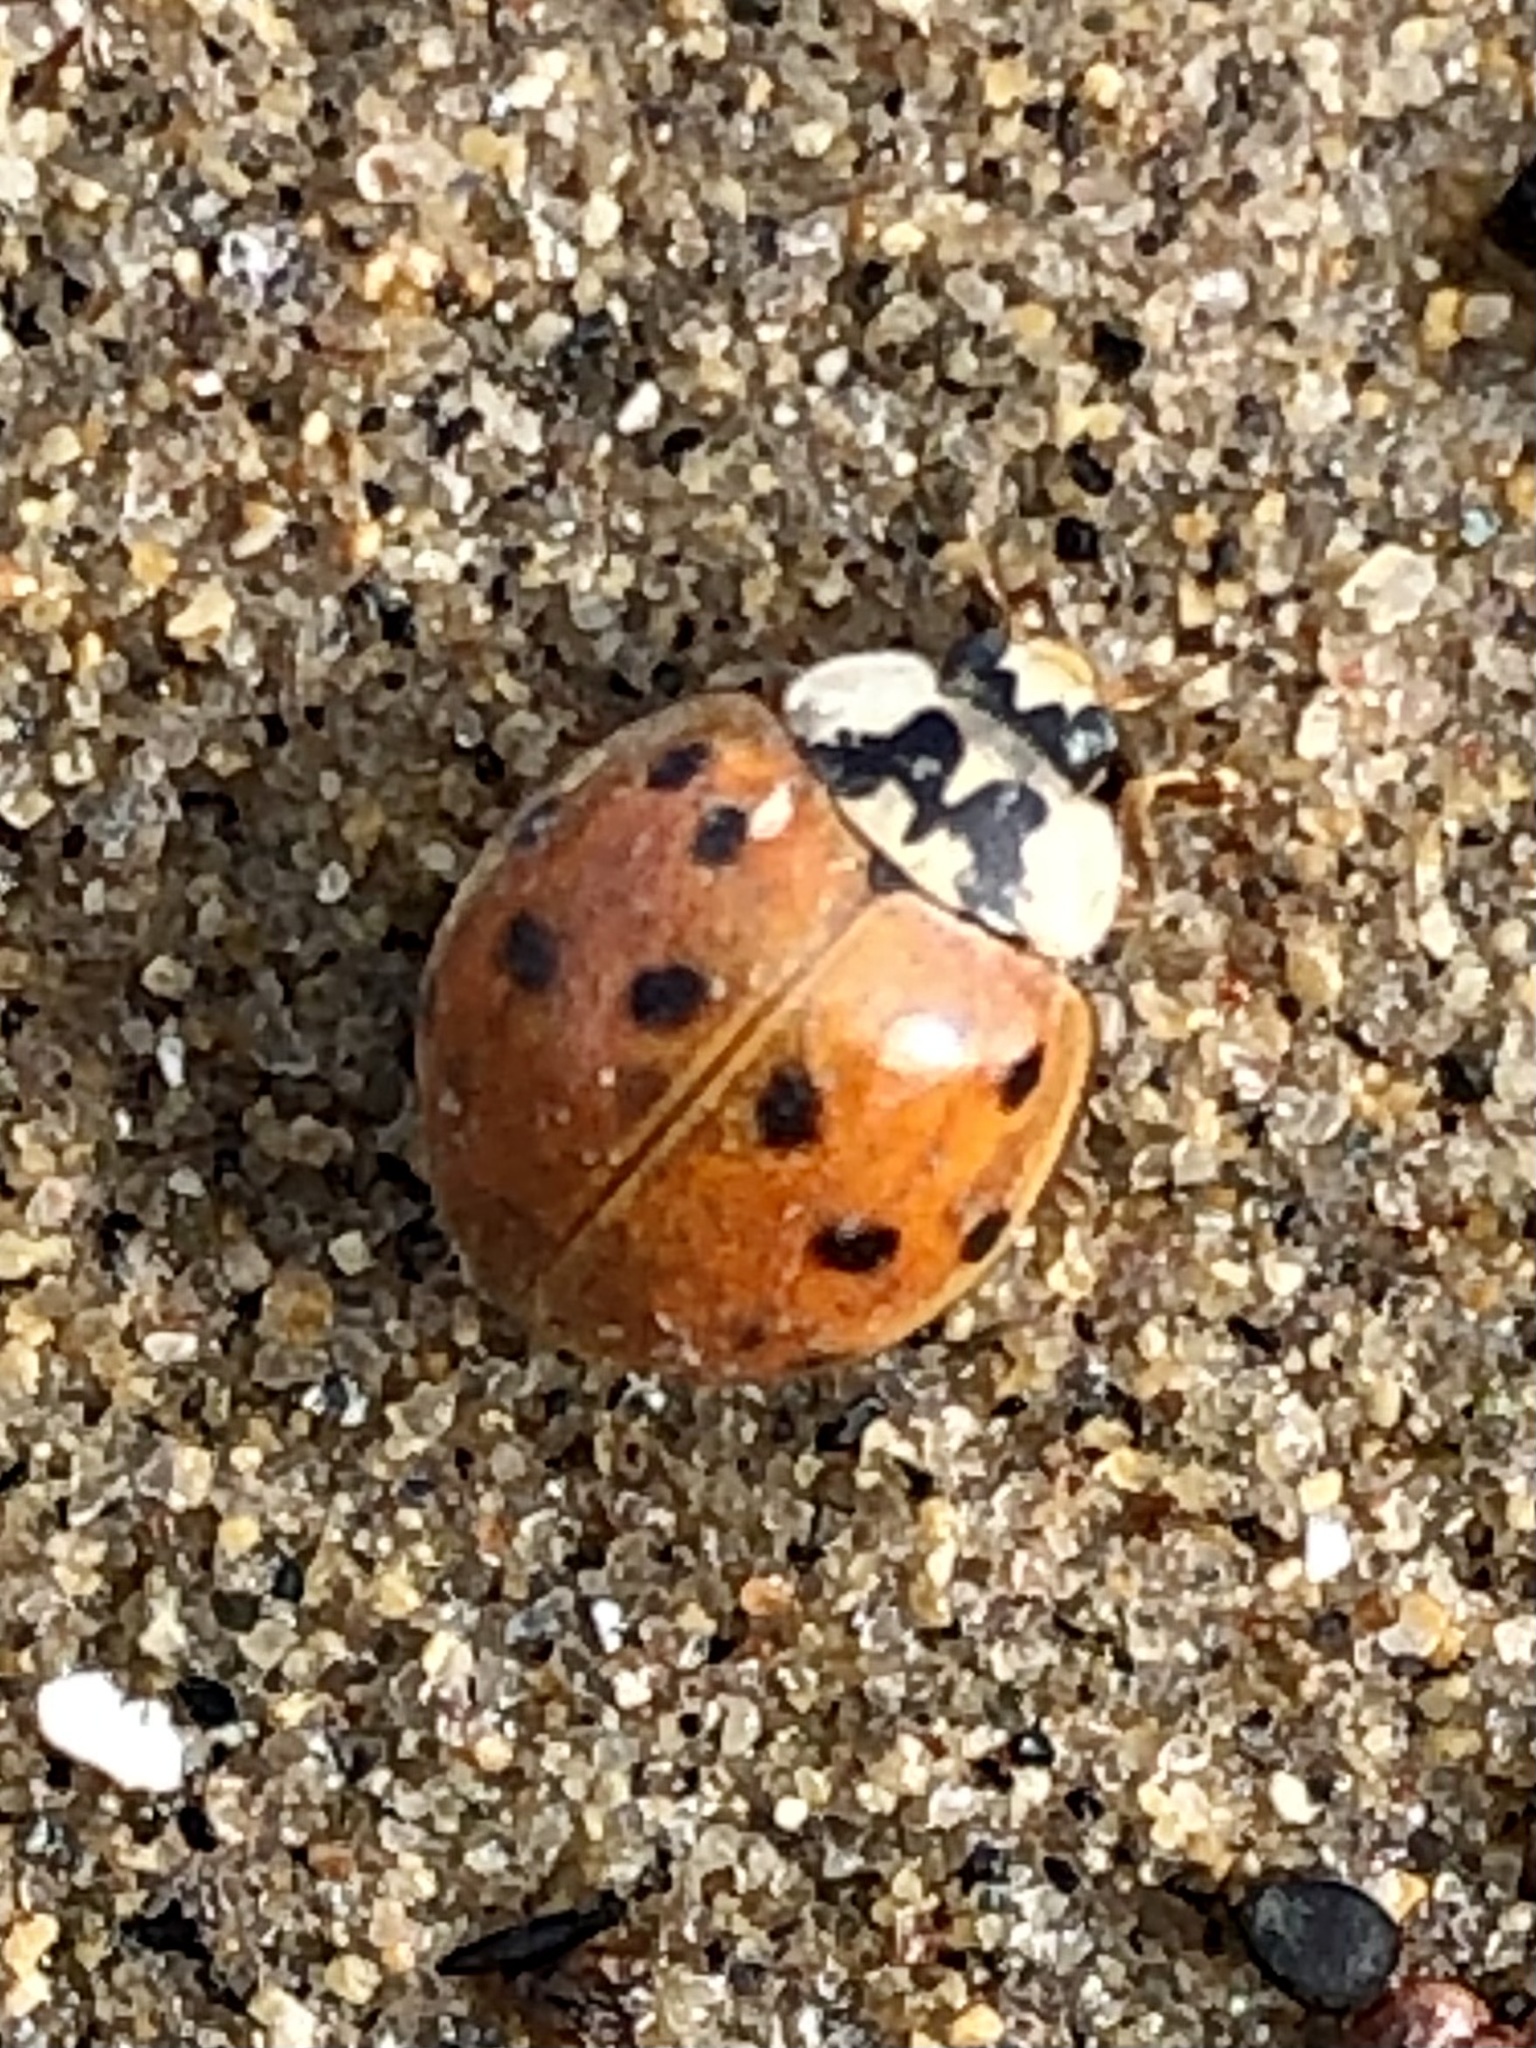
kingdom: Animalia
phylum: Arthropoda
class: Insecta
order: Coleoptera
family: Coccinellidae
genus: Harmonia
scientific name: Harmonia axyridis
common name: Harlequin ladybird
